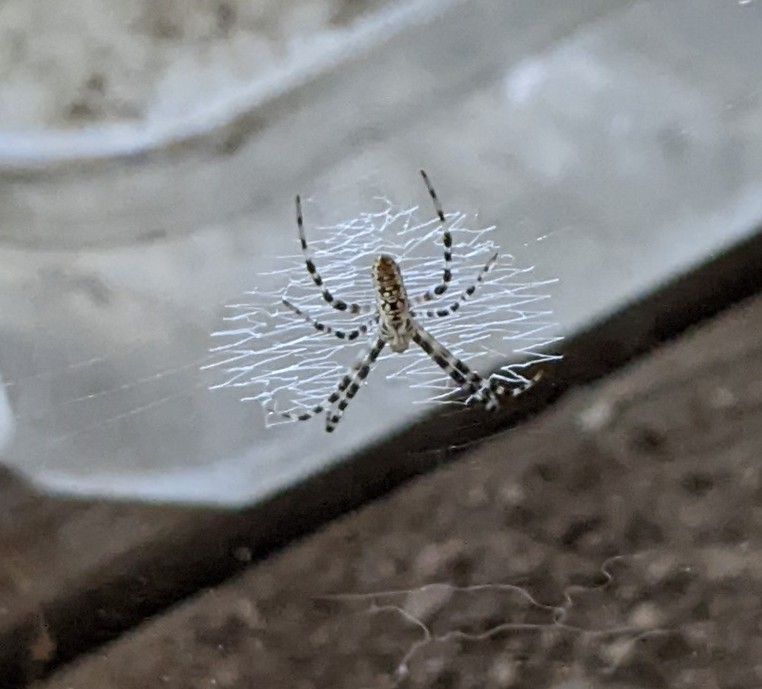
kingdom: Animalia
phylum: Arthropoda
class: Arachnida
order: Araneae
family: Araneidae
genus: Argiope
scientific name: Argiope aurantia
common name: Orb weavers
